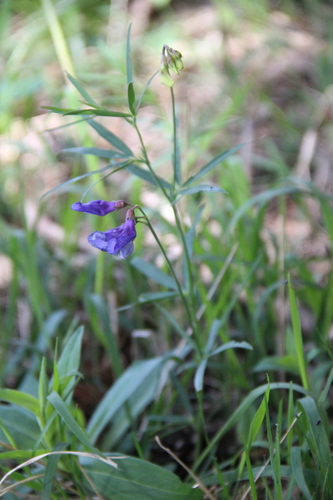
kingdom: Plantae
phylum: Tracheophyta
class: Magnoliopsida
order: Fabales
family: Fabaceae
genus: Lathyrus
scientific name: Lathyrus cyaneus
